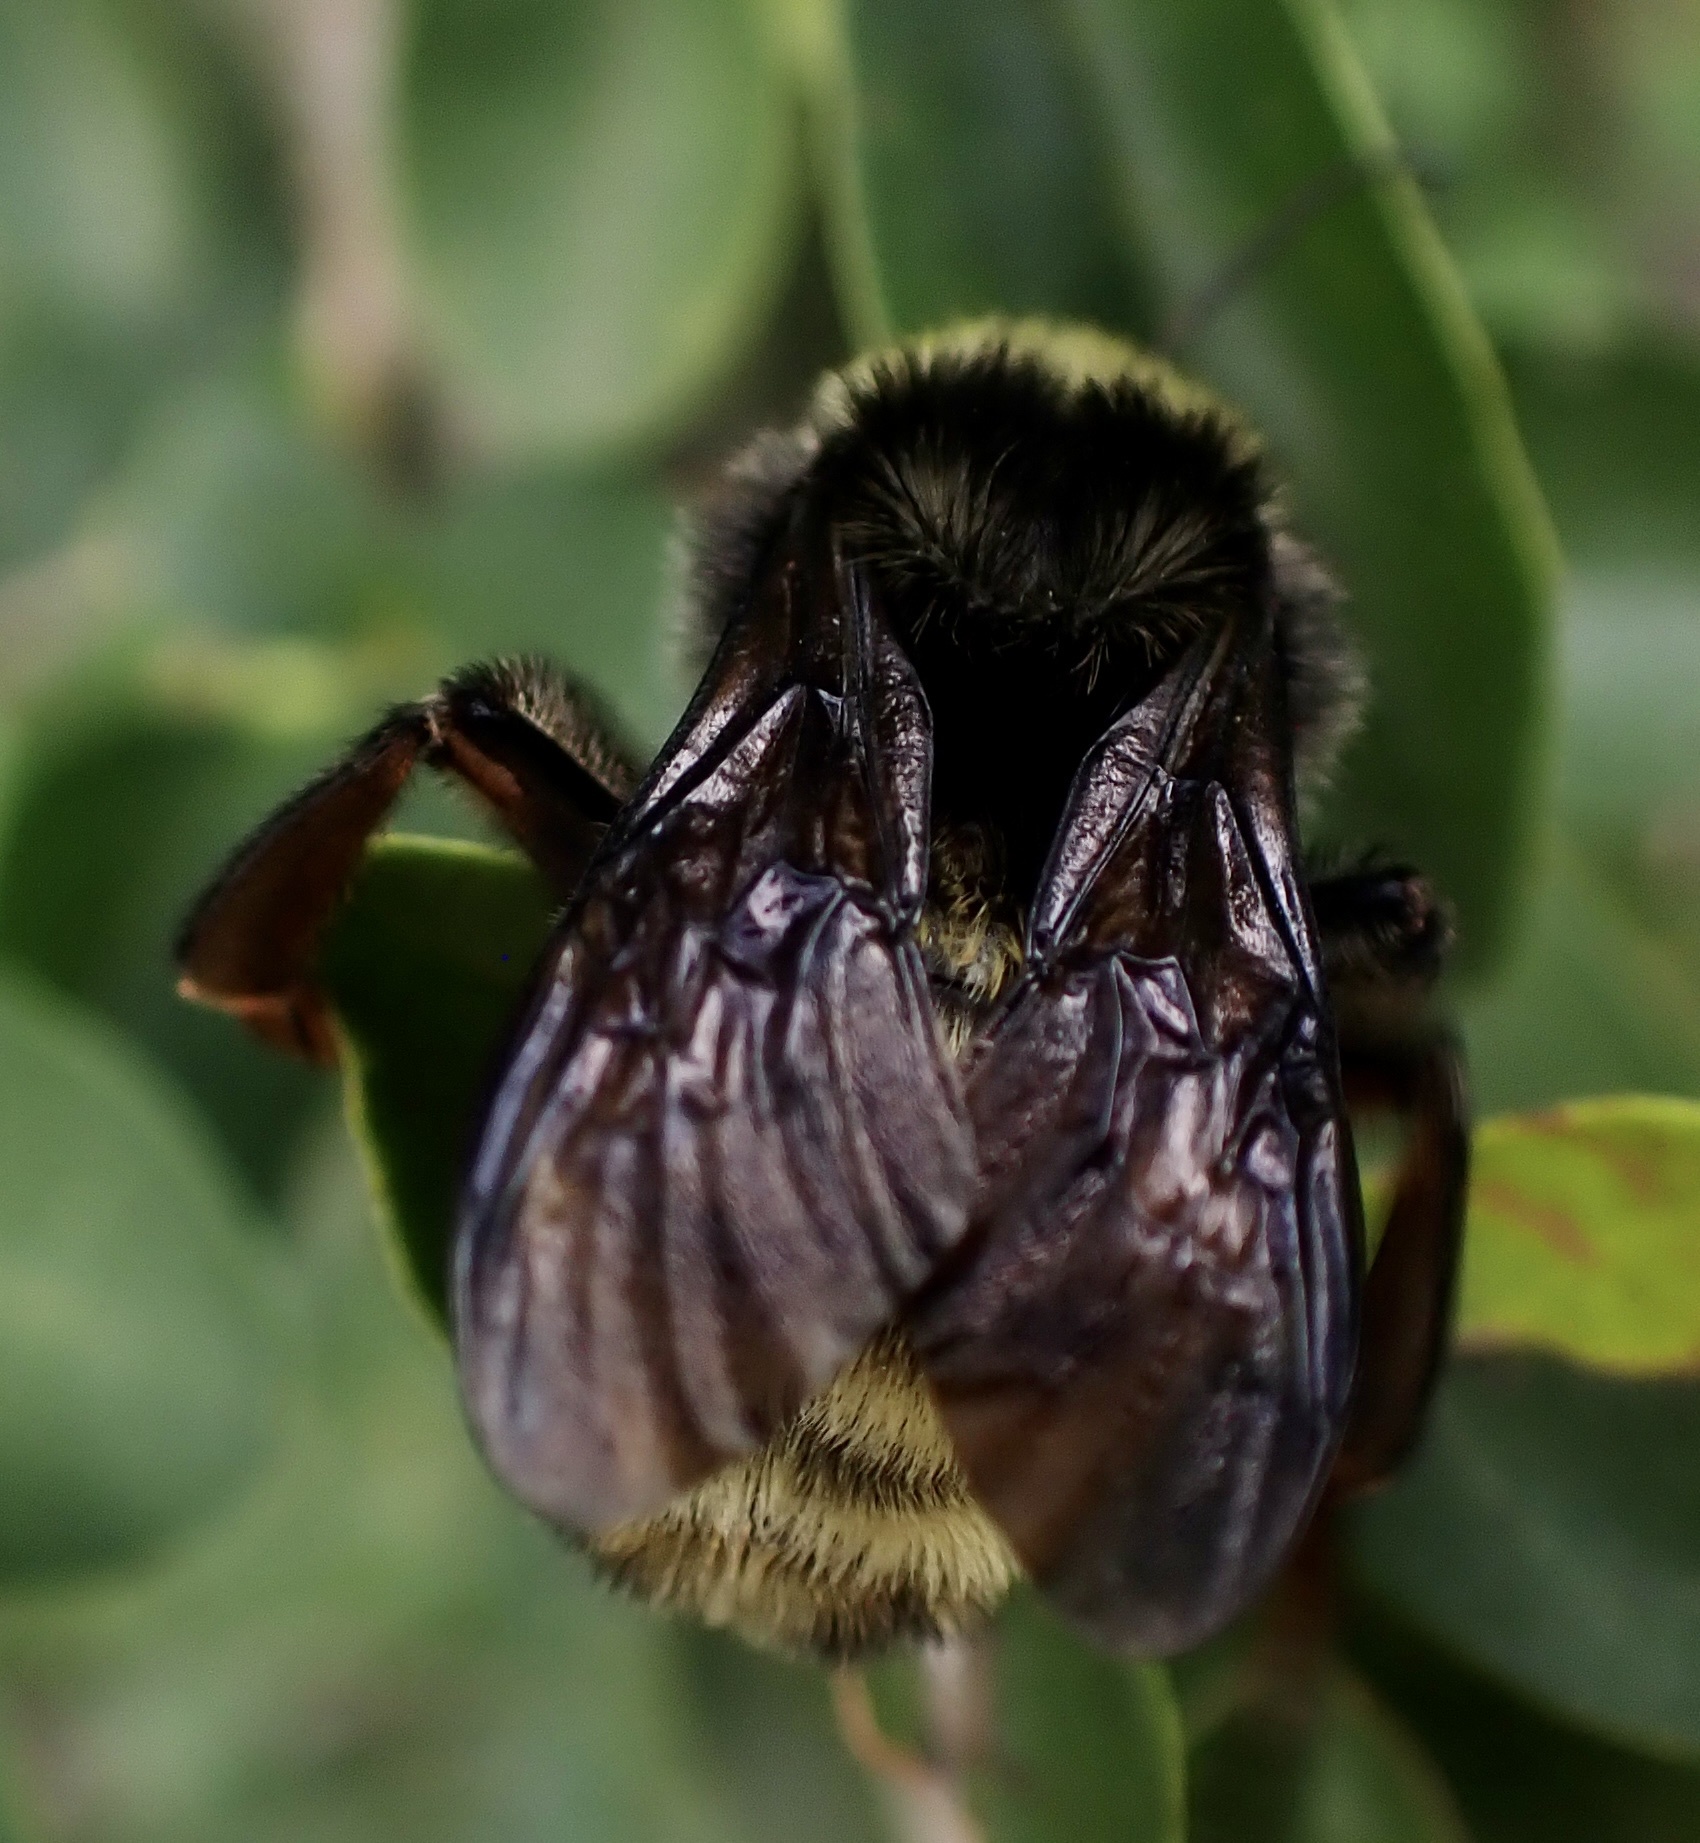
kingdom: Animalia
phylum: Arthropoda
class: Insecta
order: Hymenoptera
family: Apidae
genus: Bombus
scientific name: Bombus pensylvanicus
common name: Bumble bee
